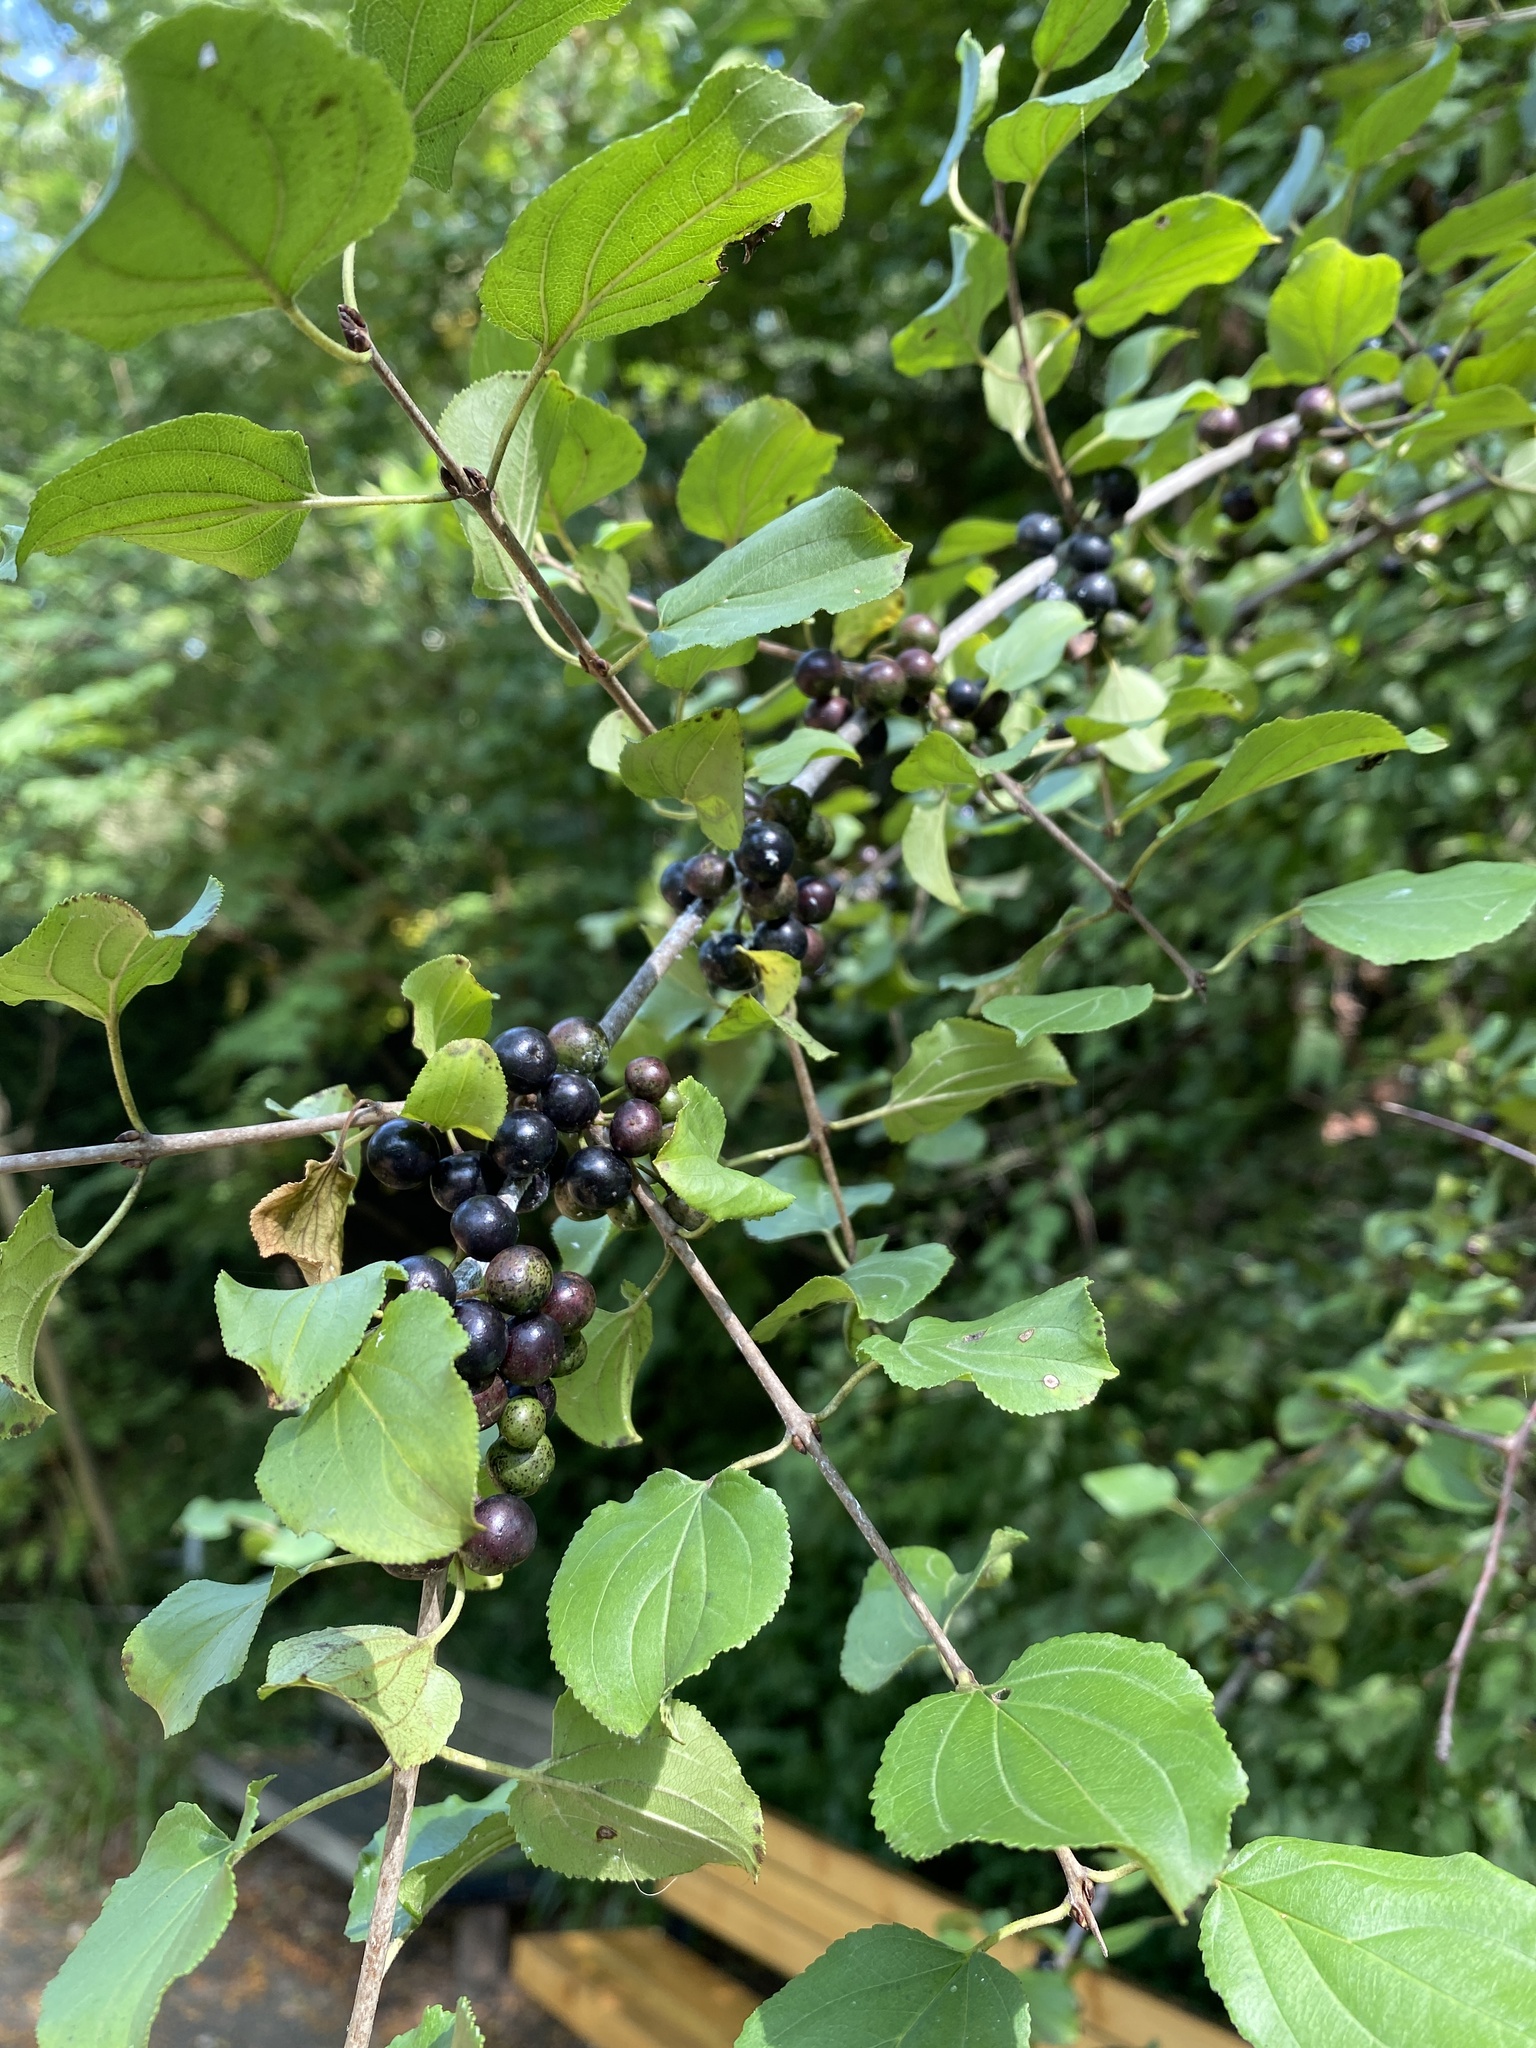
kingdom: Plantae
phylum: Tracheophyta
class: Magnoliopsida
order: Rosales
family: Rhamnaceae
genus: Rhamnus
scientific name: Rhamnus cathartica
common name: Common buckthorn
